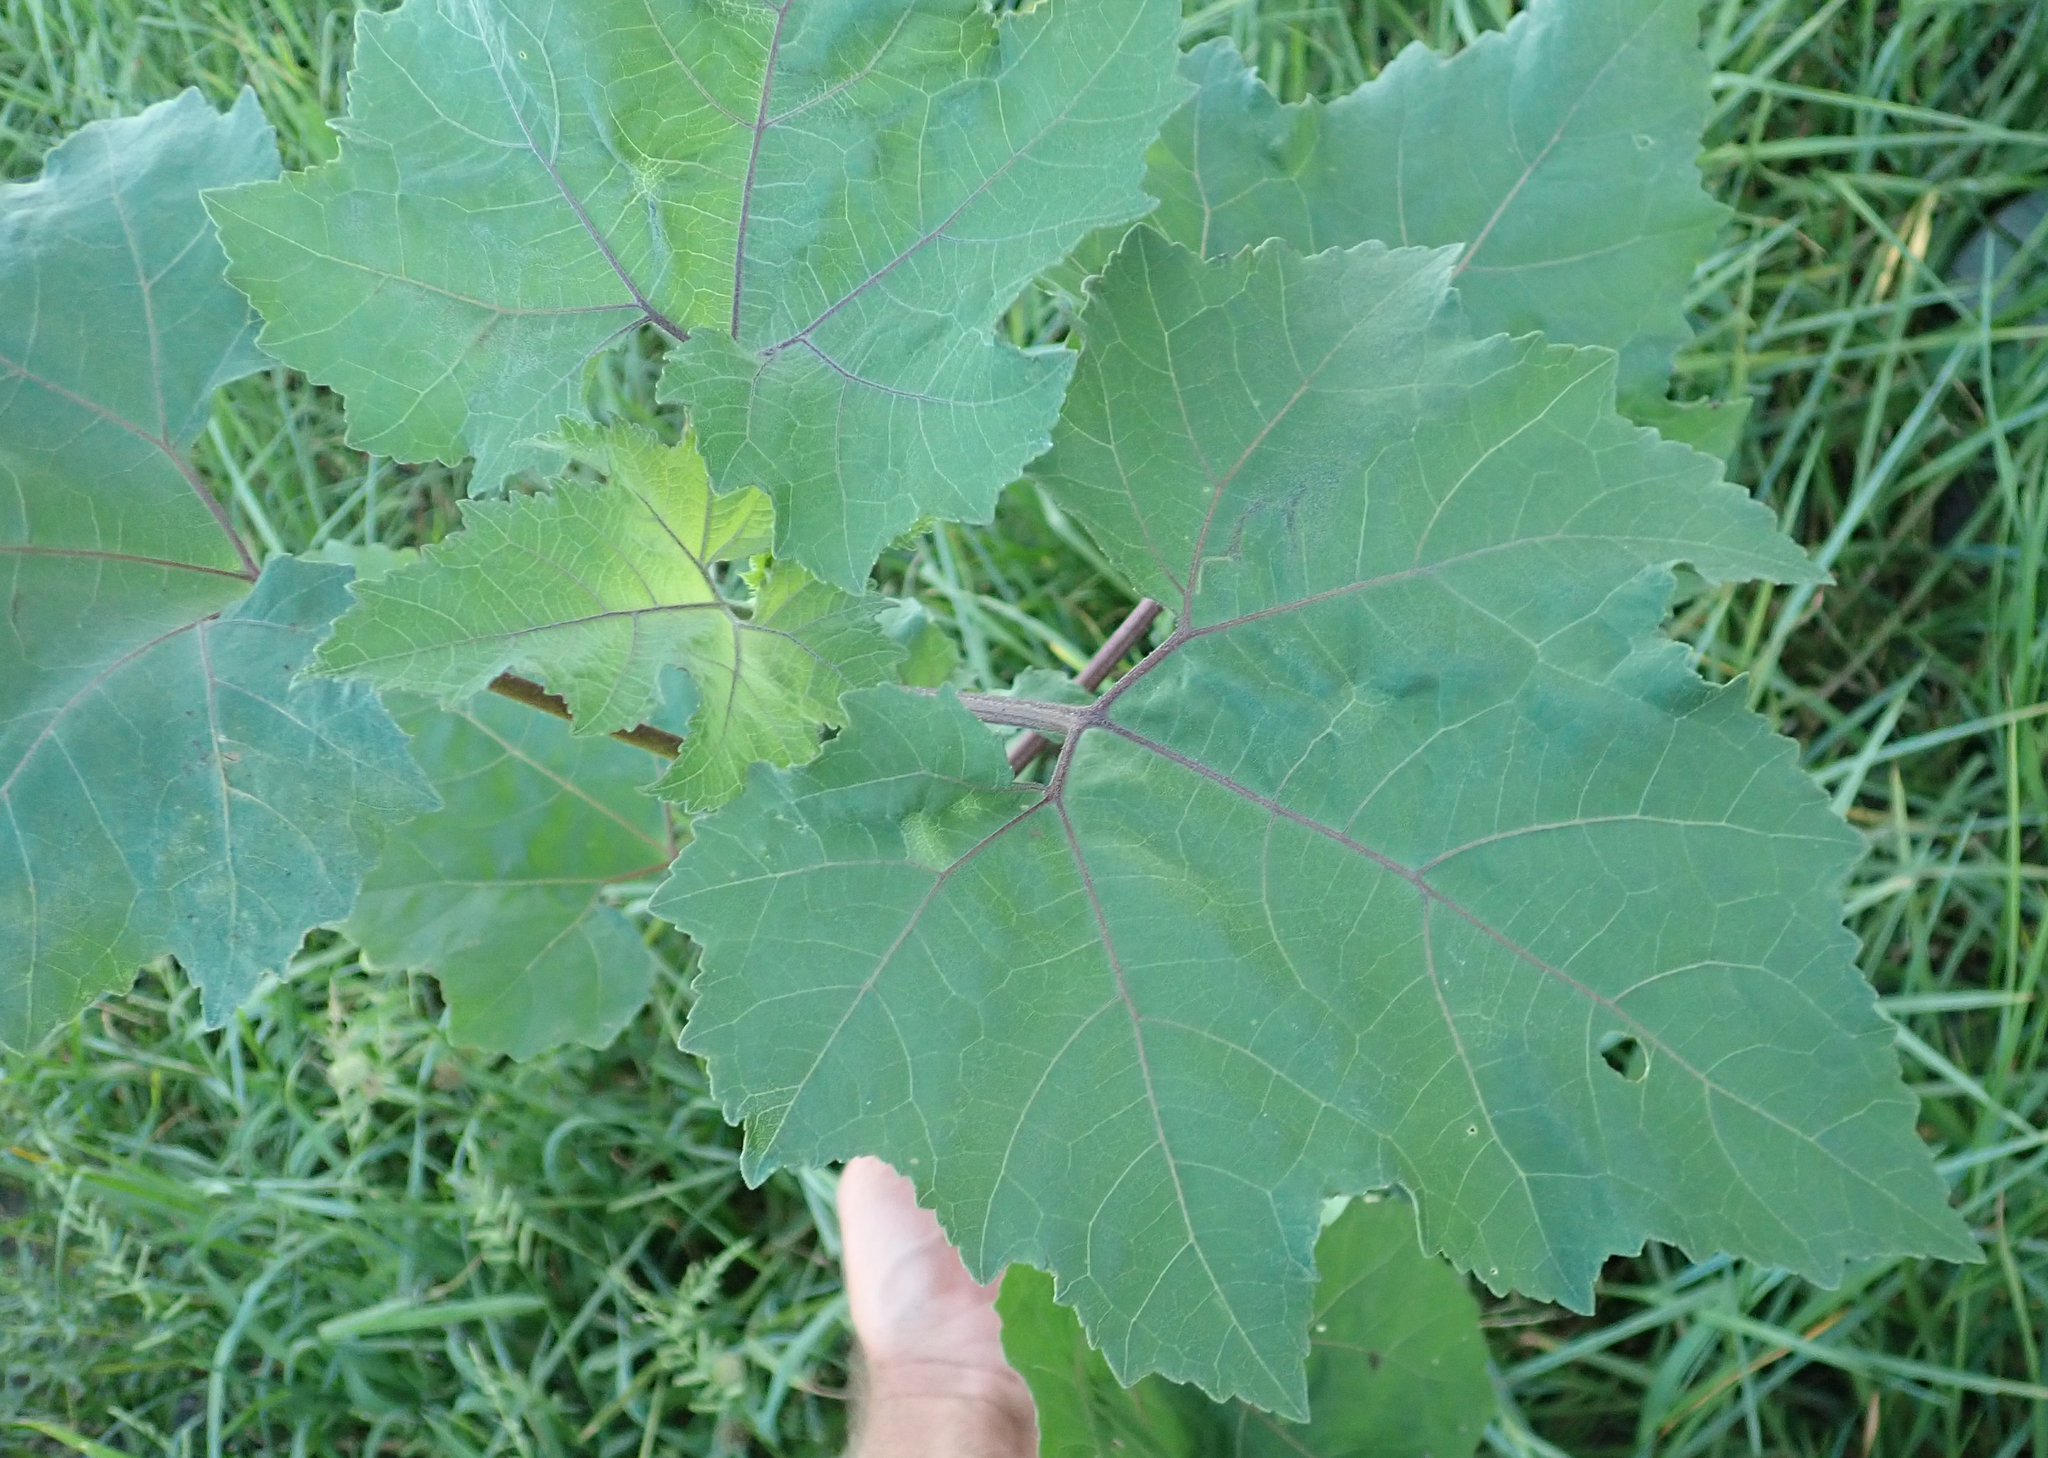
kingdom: Plantae
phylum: Tracheophyta
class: Magnoliopsida
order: Asterales
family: Asteraceae
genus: Xanthium
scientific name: Xanthium strumarium
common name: Rough cocklebur
